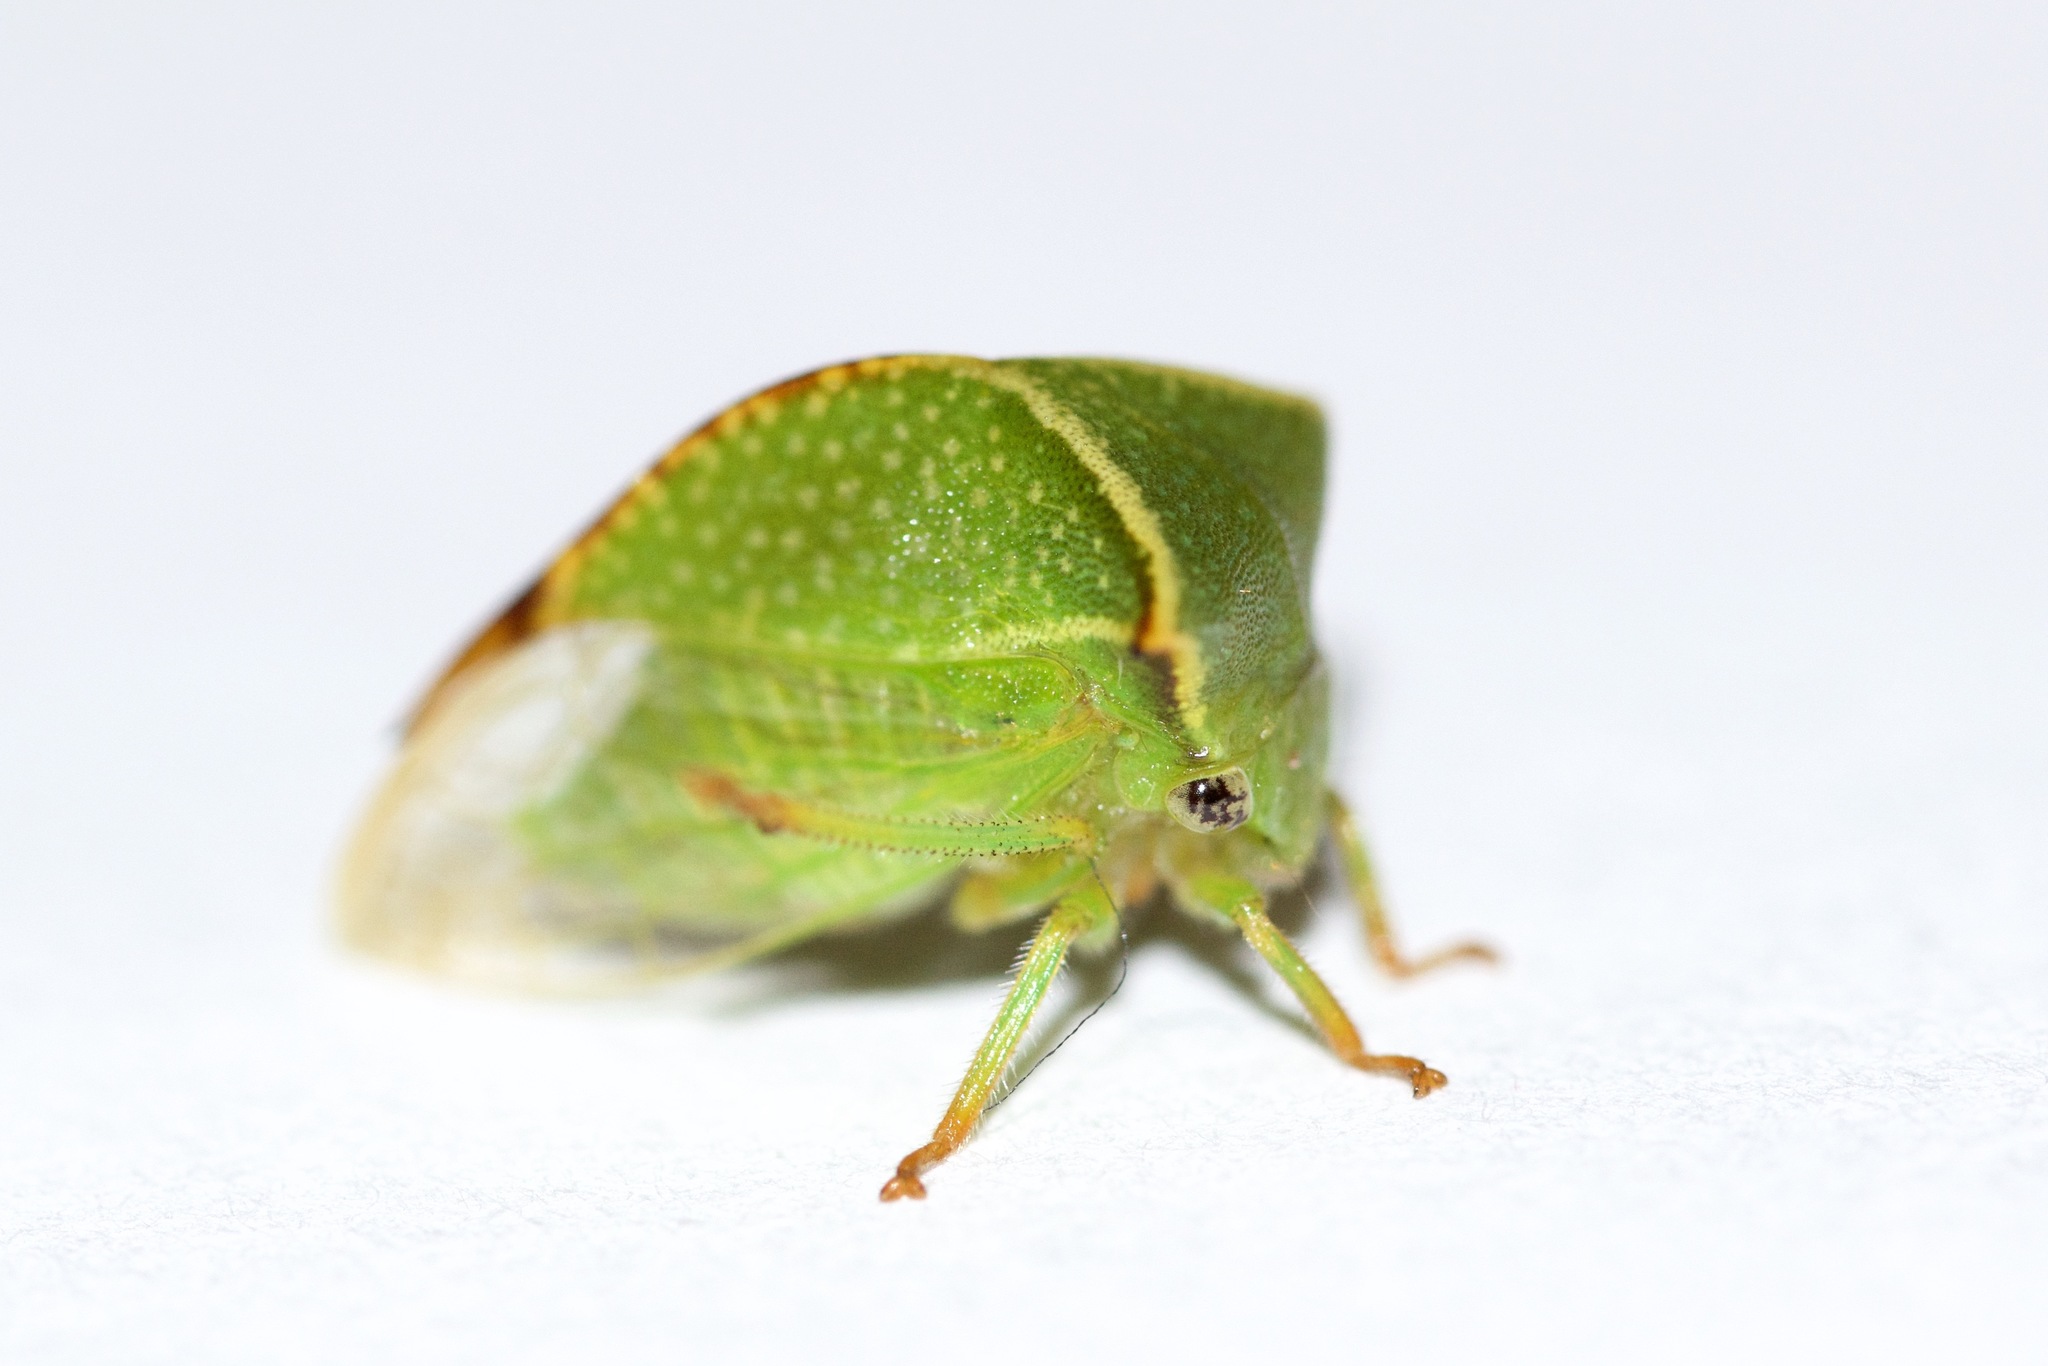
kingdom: Animalia
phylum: Arthropoda
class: Insecta
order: Hemiptera
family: Membracidae
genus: Stictocephala
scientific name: Stictocephala bisonia
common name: American buffalo treehopper
